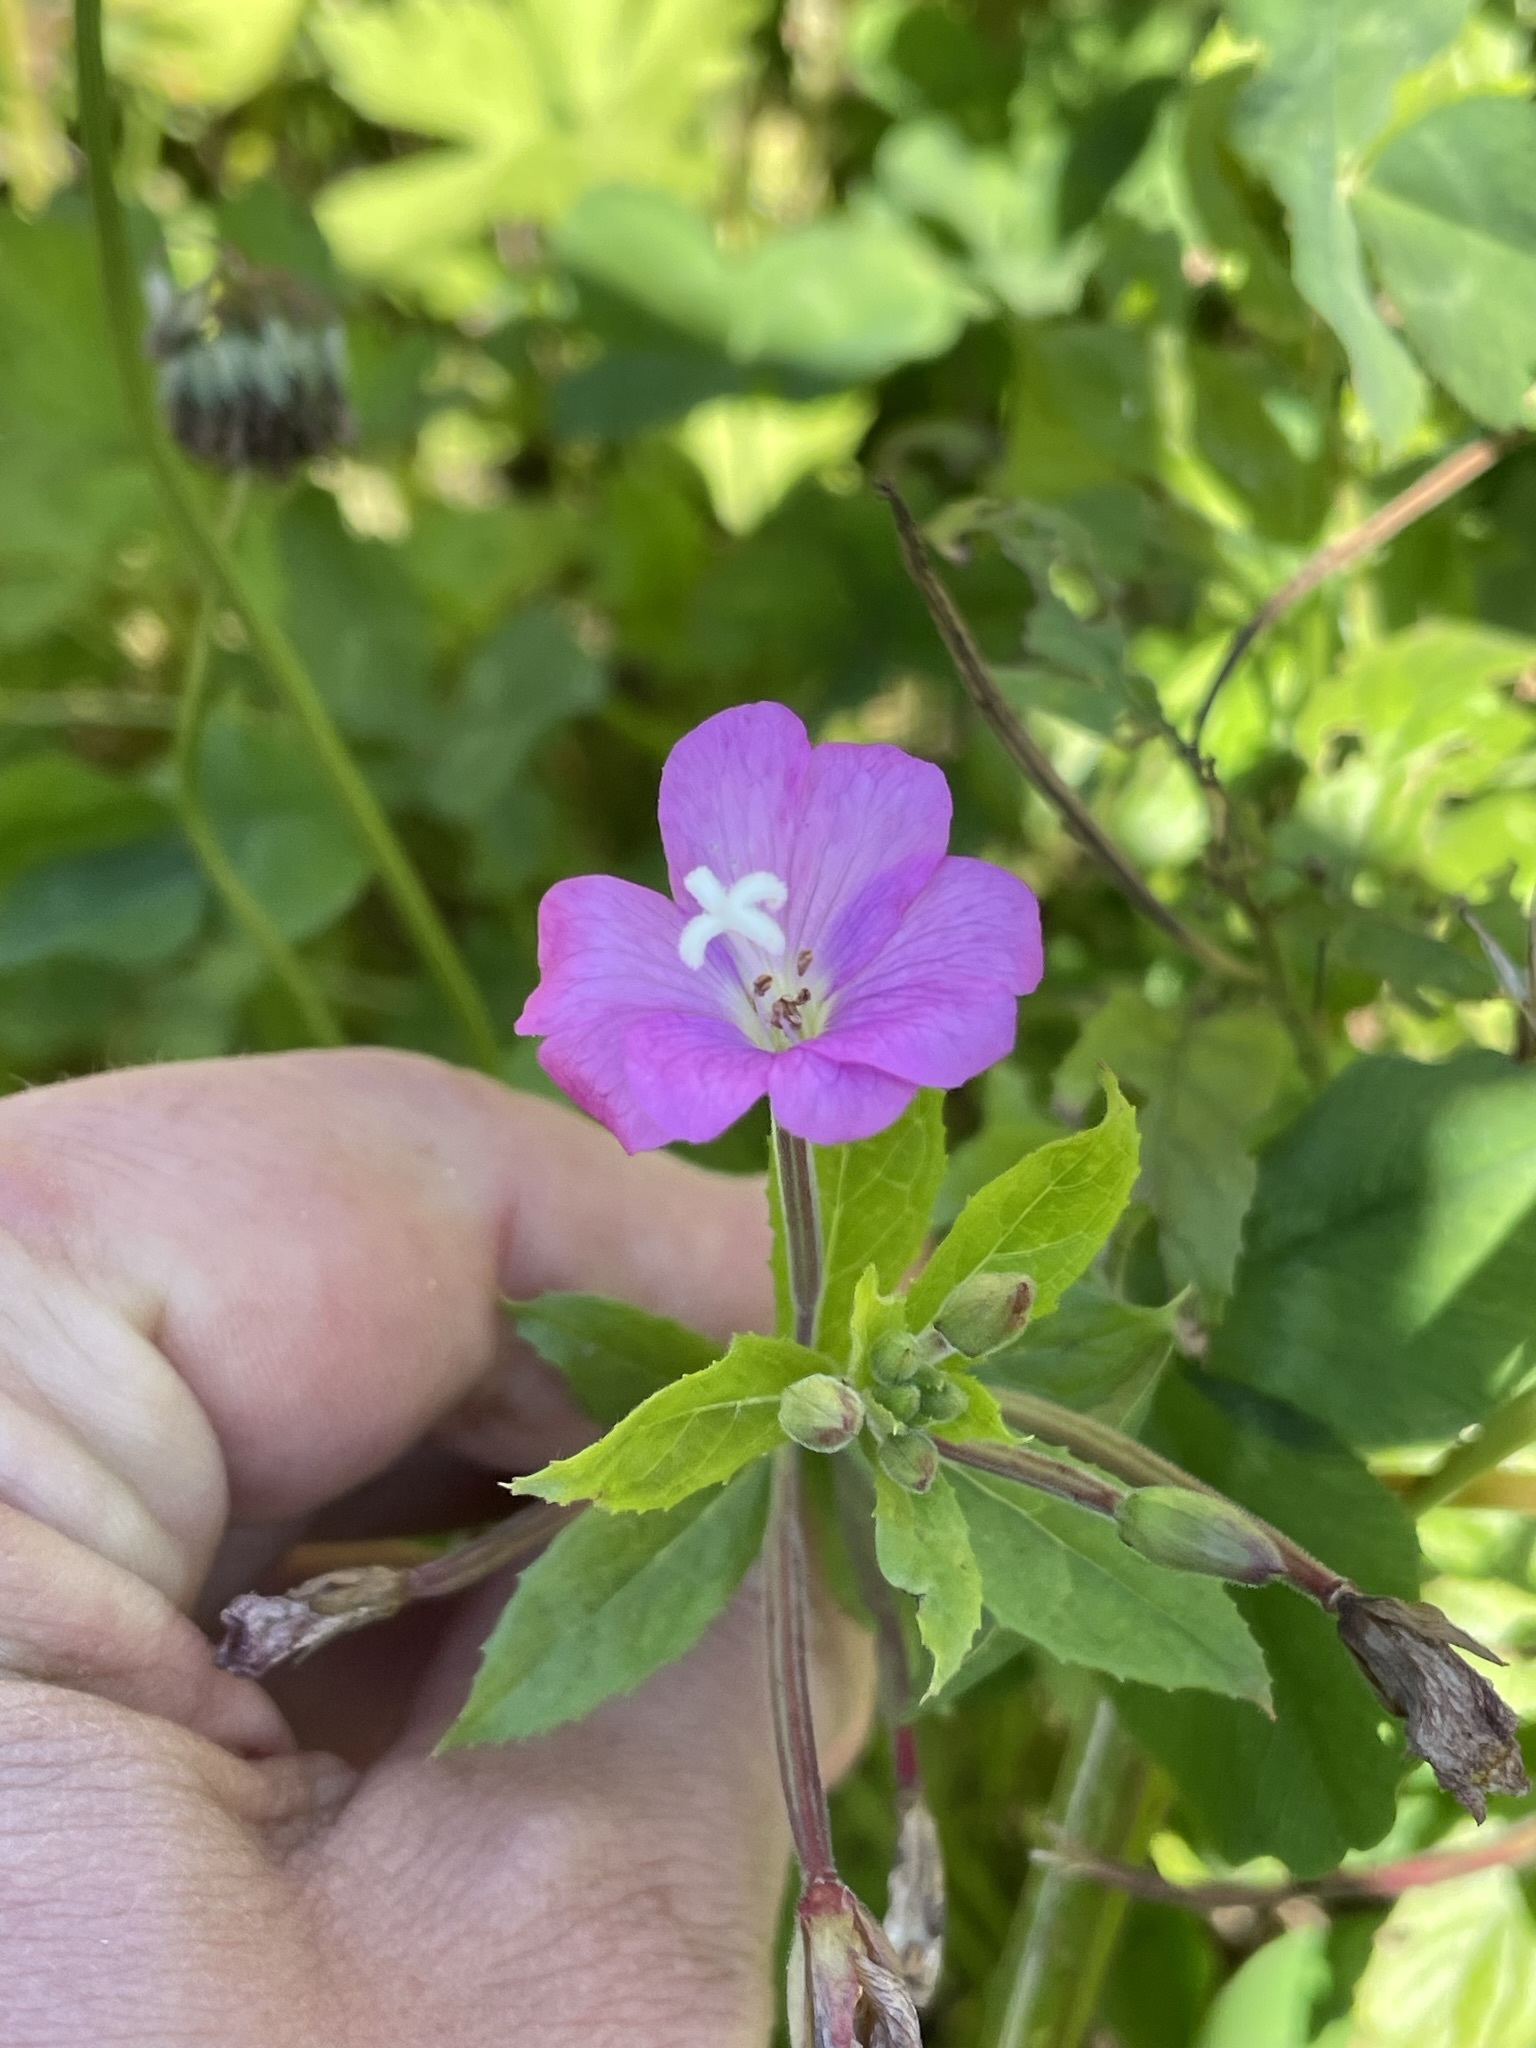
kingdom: Plantae
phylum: Tracheophyta
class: Magnoliopsida
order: Myrtales
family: Onagraceae
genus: Epilobium
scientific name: Epilobium hirsutum
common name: Great willowherb
